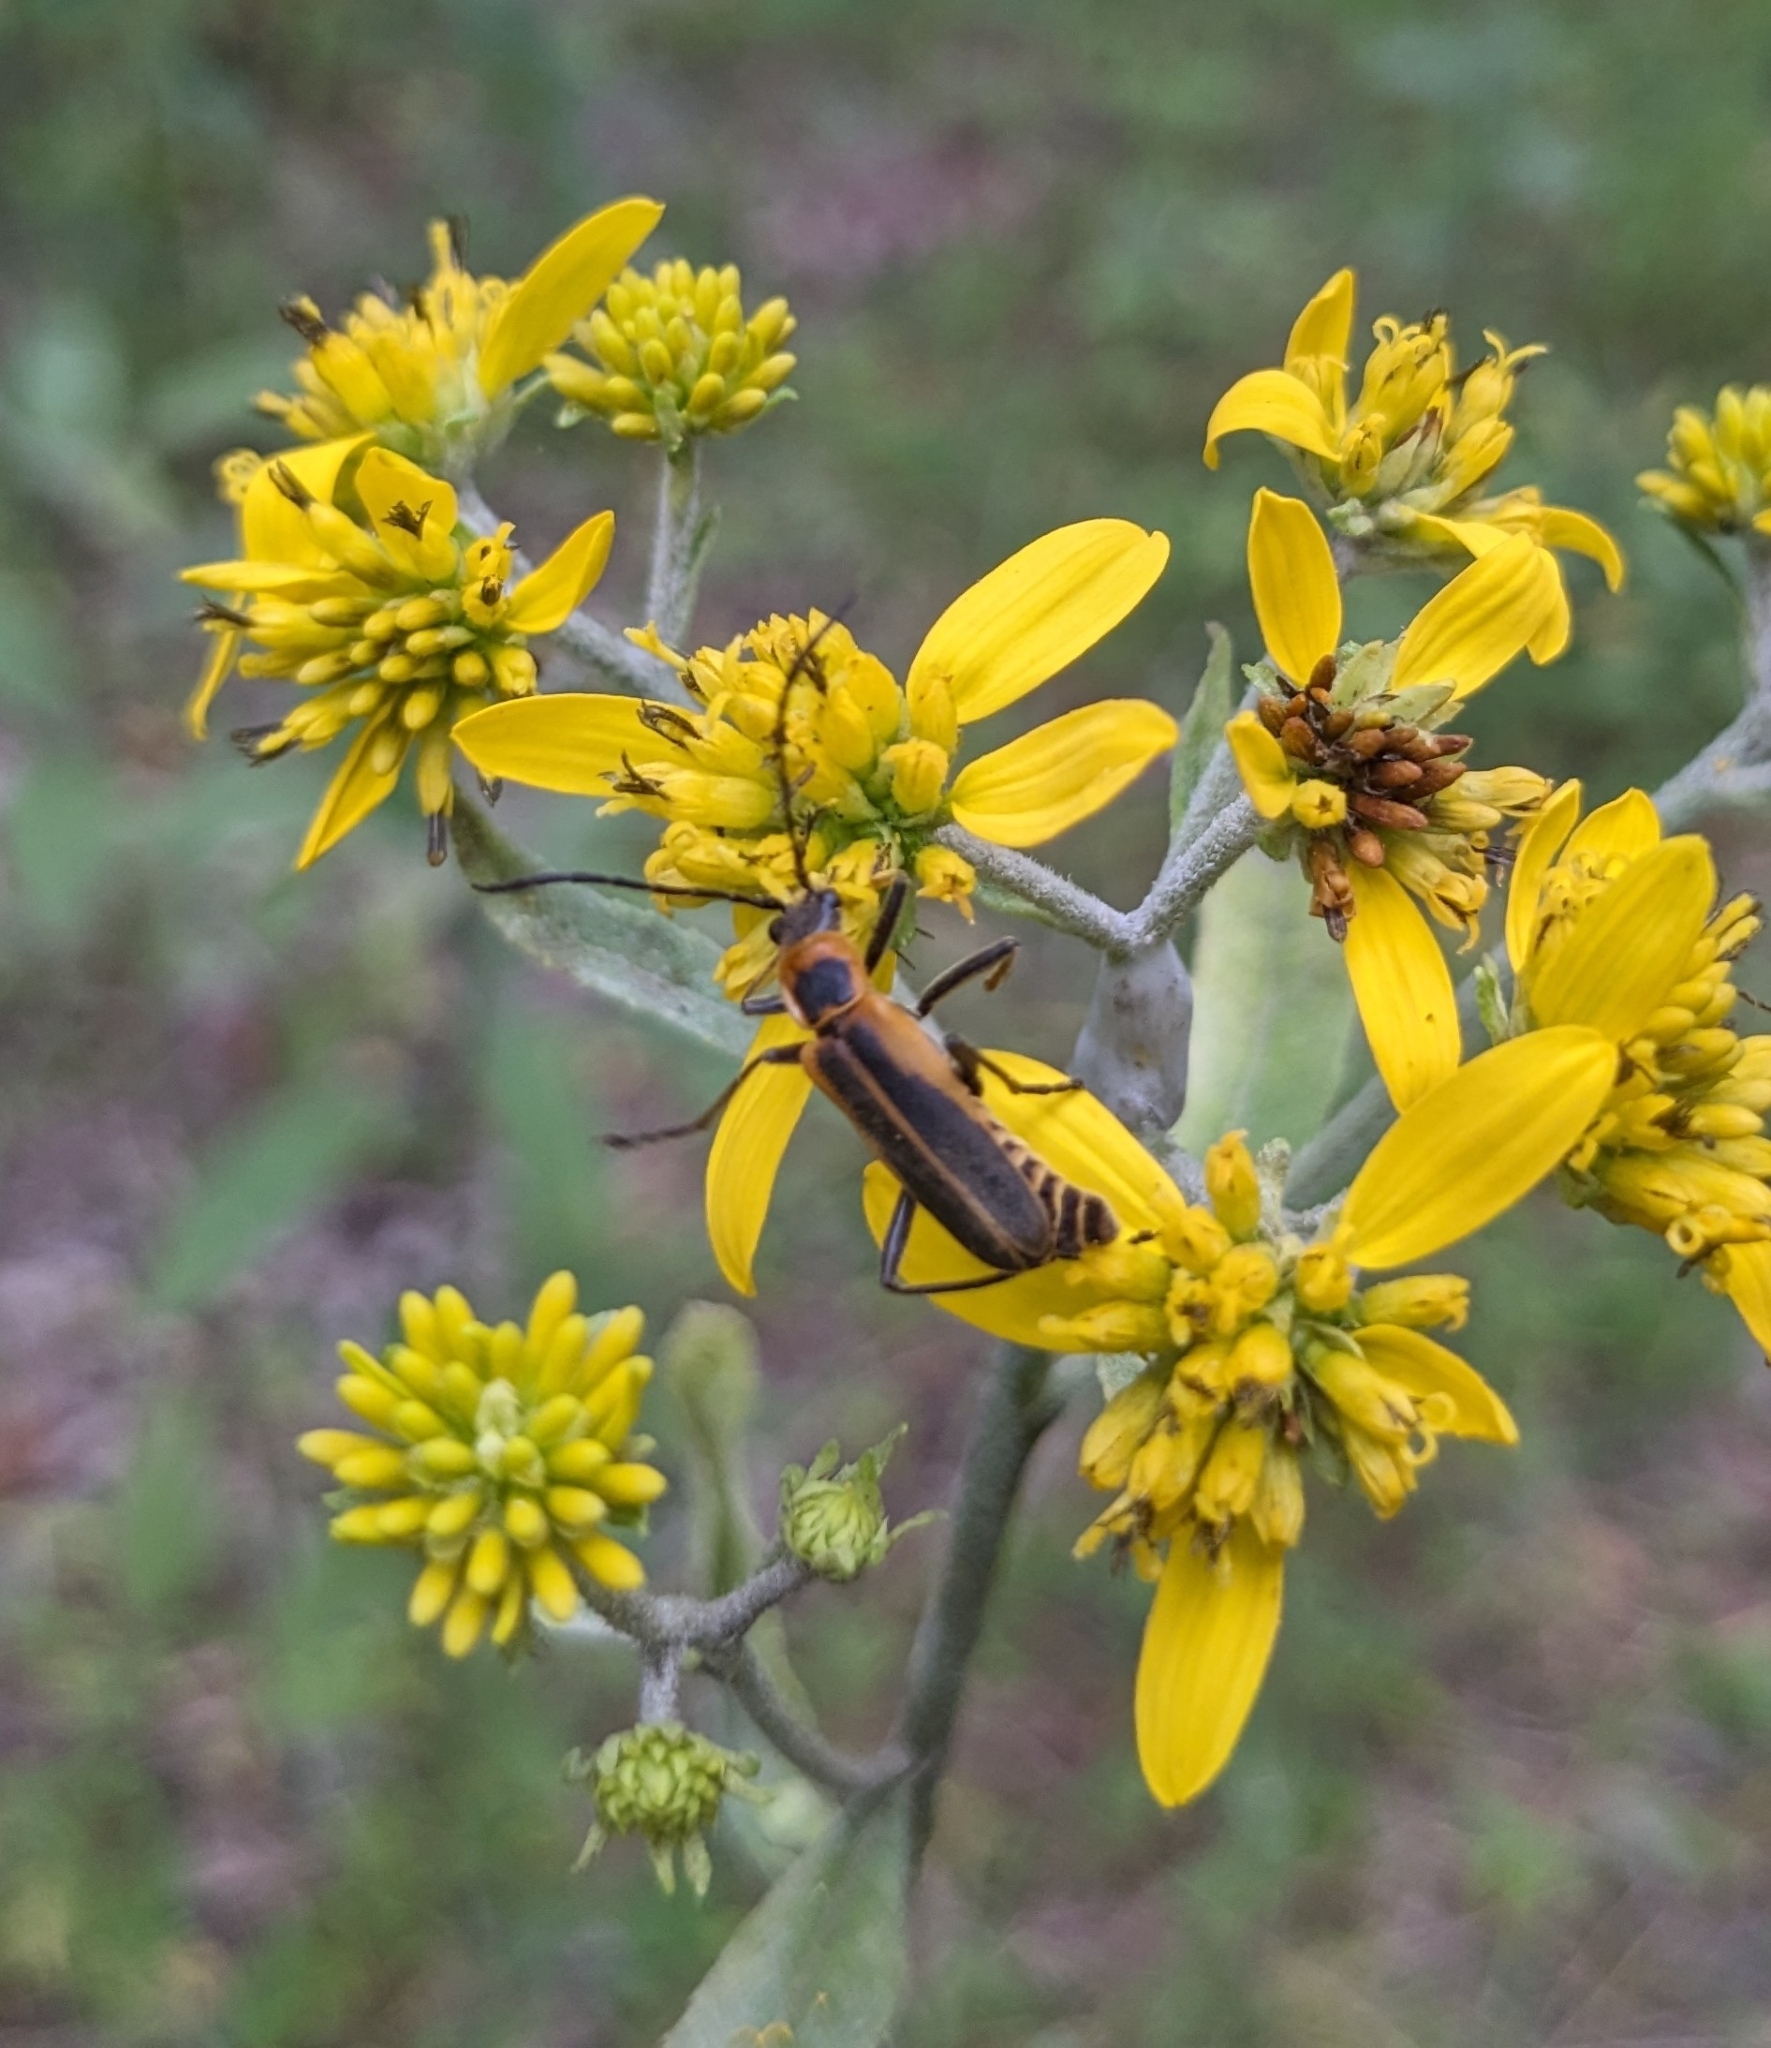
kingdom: Animalia
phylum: Arthropoda
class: Insecta
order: Coleoptera
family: Cantharidae
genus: Chauliognathus
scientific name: Chauliognathus pensylvanicus
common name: Goldenrod soldier beetle
